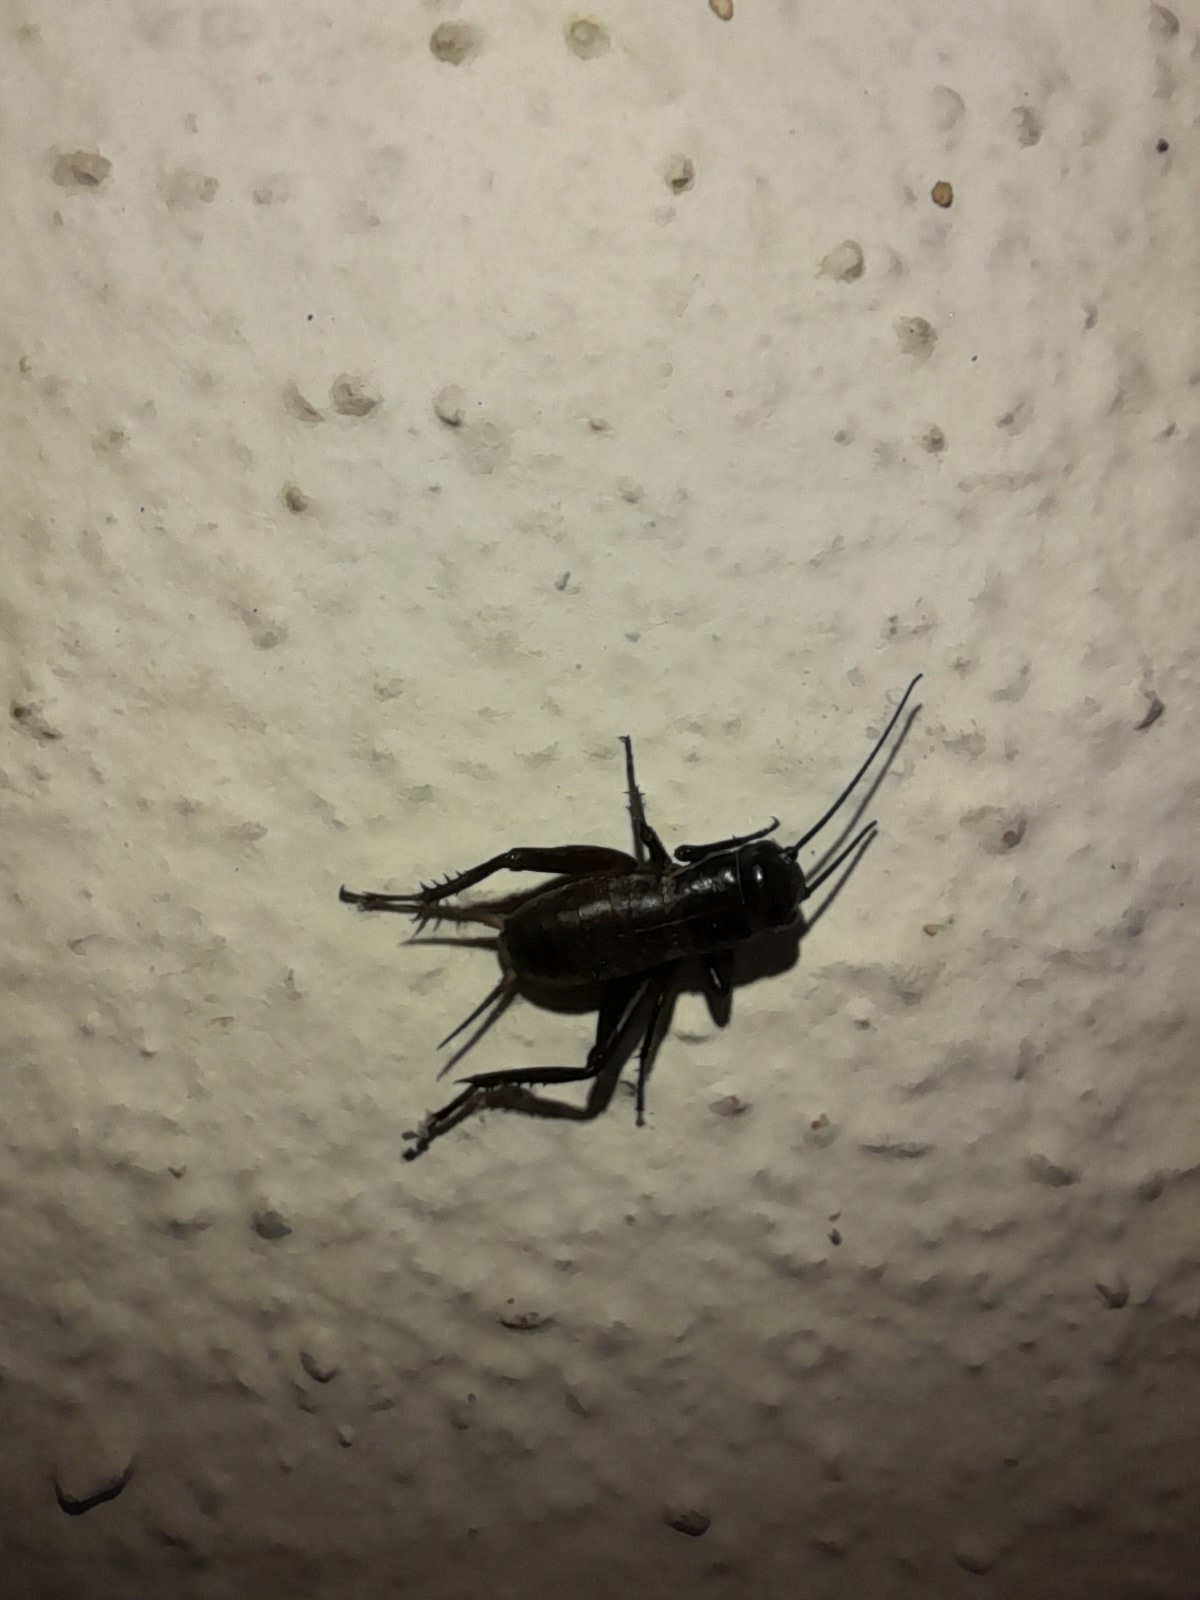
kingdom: Animalia
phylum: Arthropoda
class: Insecta
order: Orthoptera
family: Gryllidae
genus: Gryllus
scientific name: Gryllus campestris
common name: Field cricket
